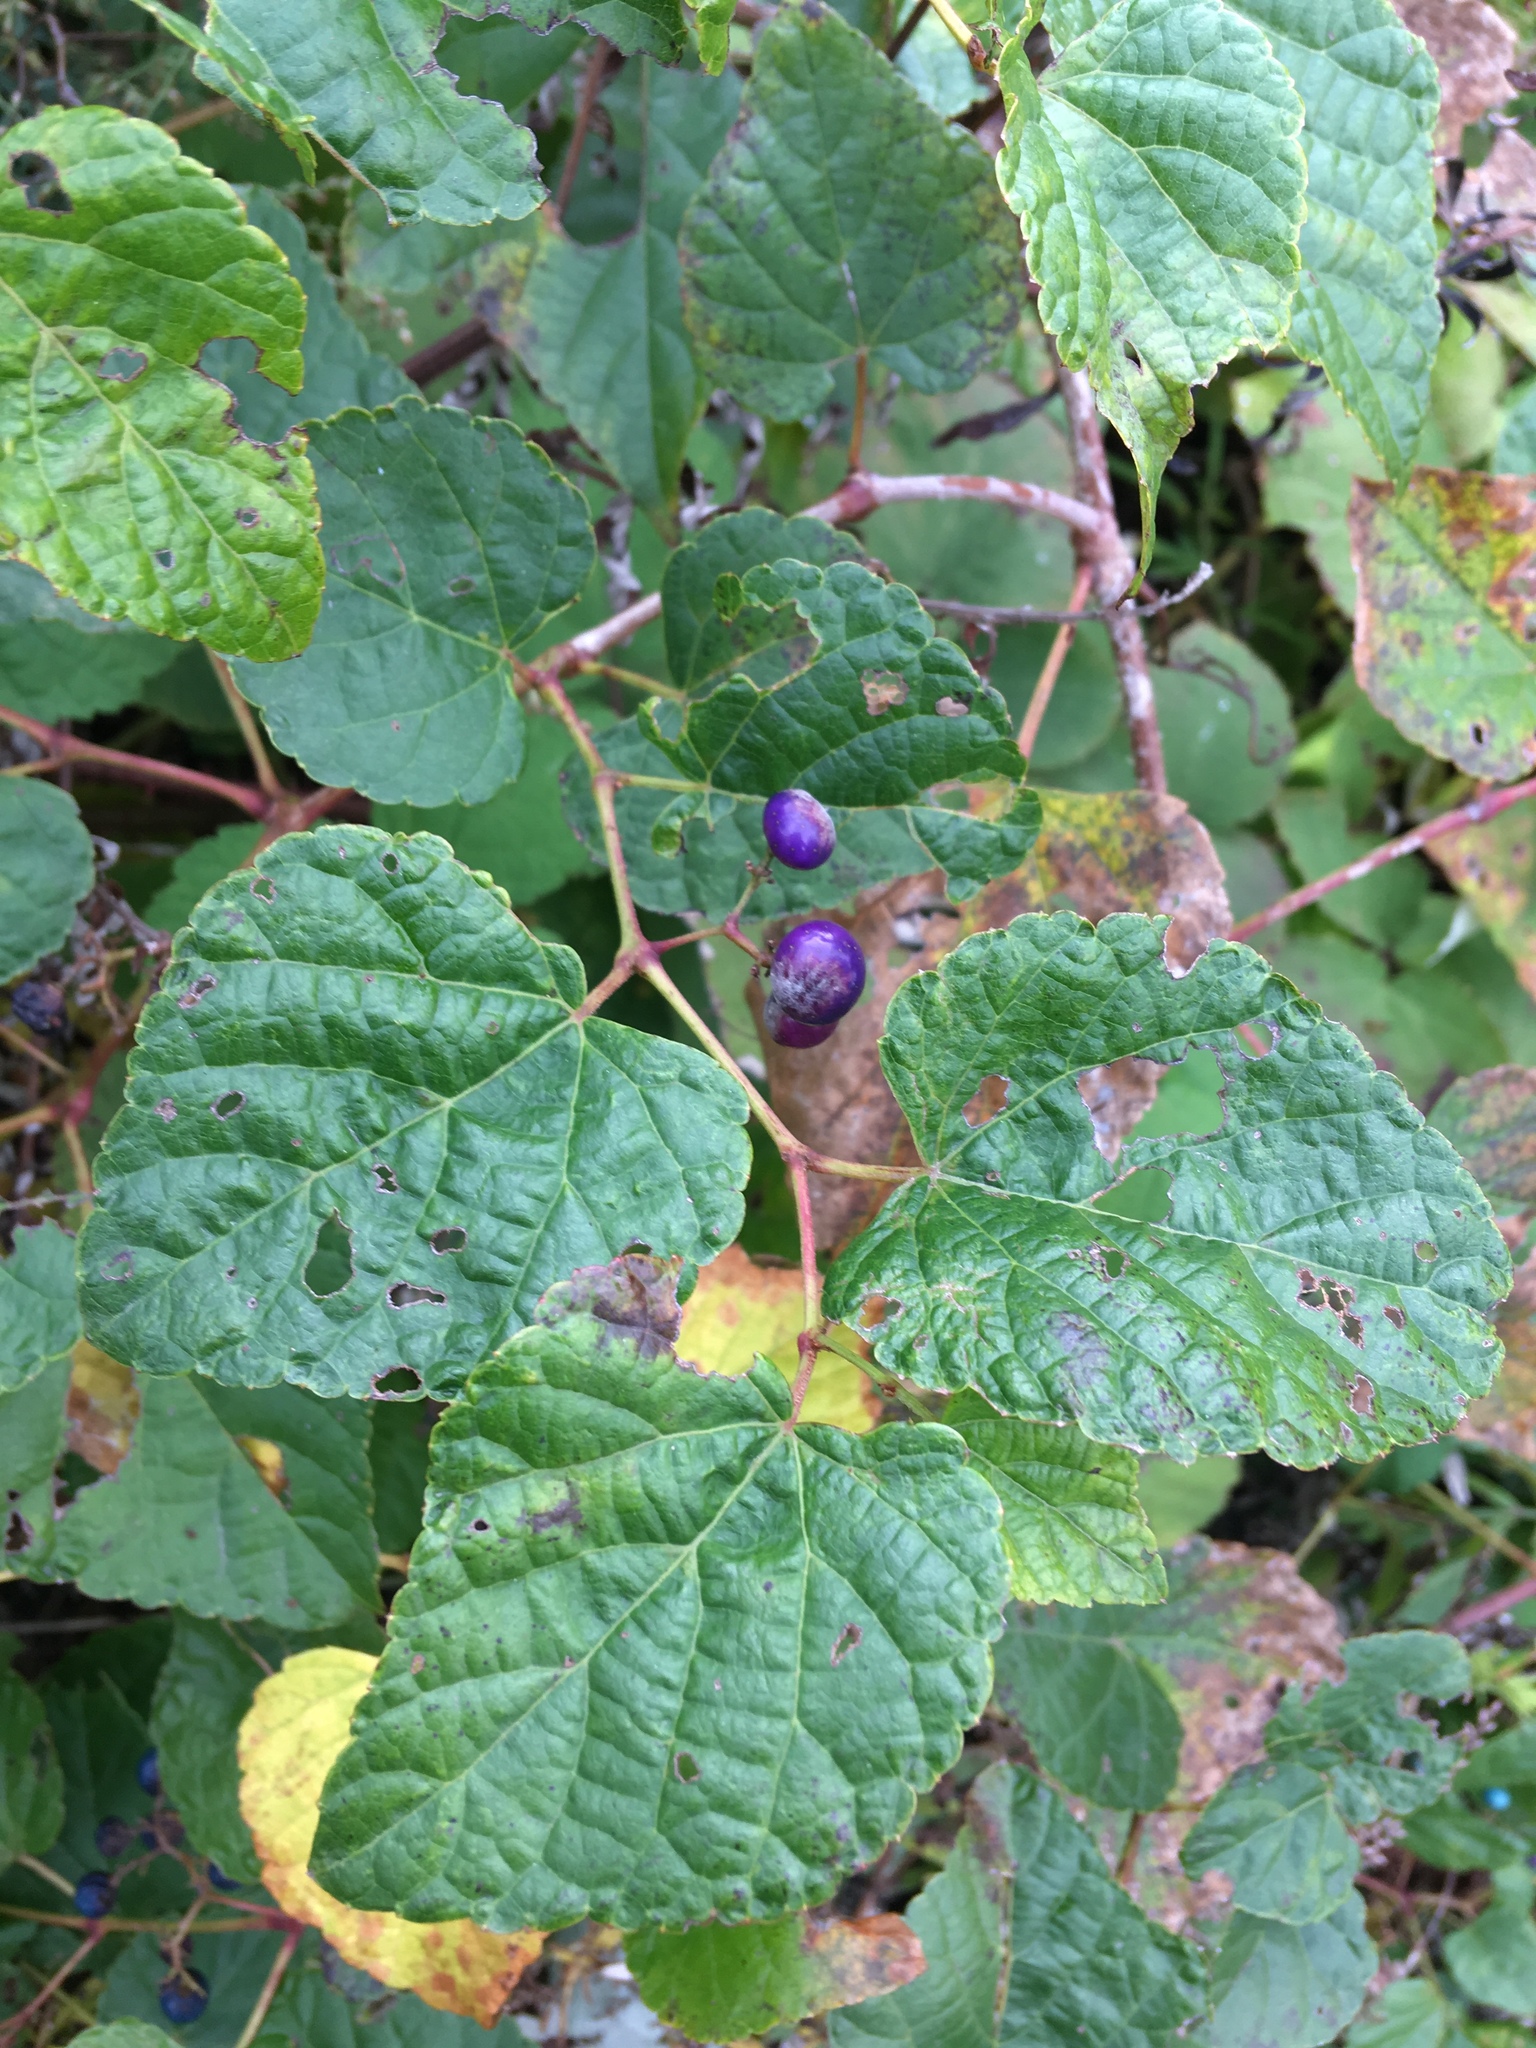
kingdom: Plantae
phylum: Tracheophyta
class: Magnoliopsida
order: Vitales
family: Vitaceae
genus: Ampelopsis
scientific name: Ampelopsis glandulosa
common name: Amur peppervine
